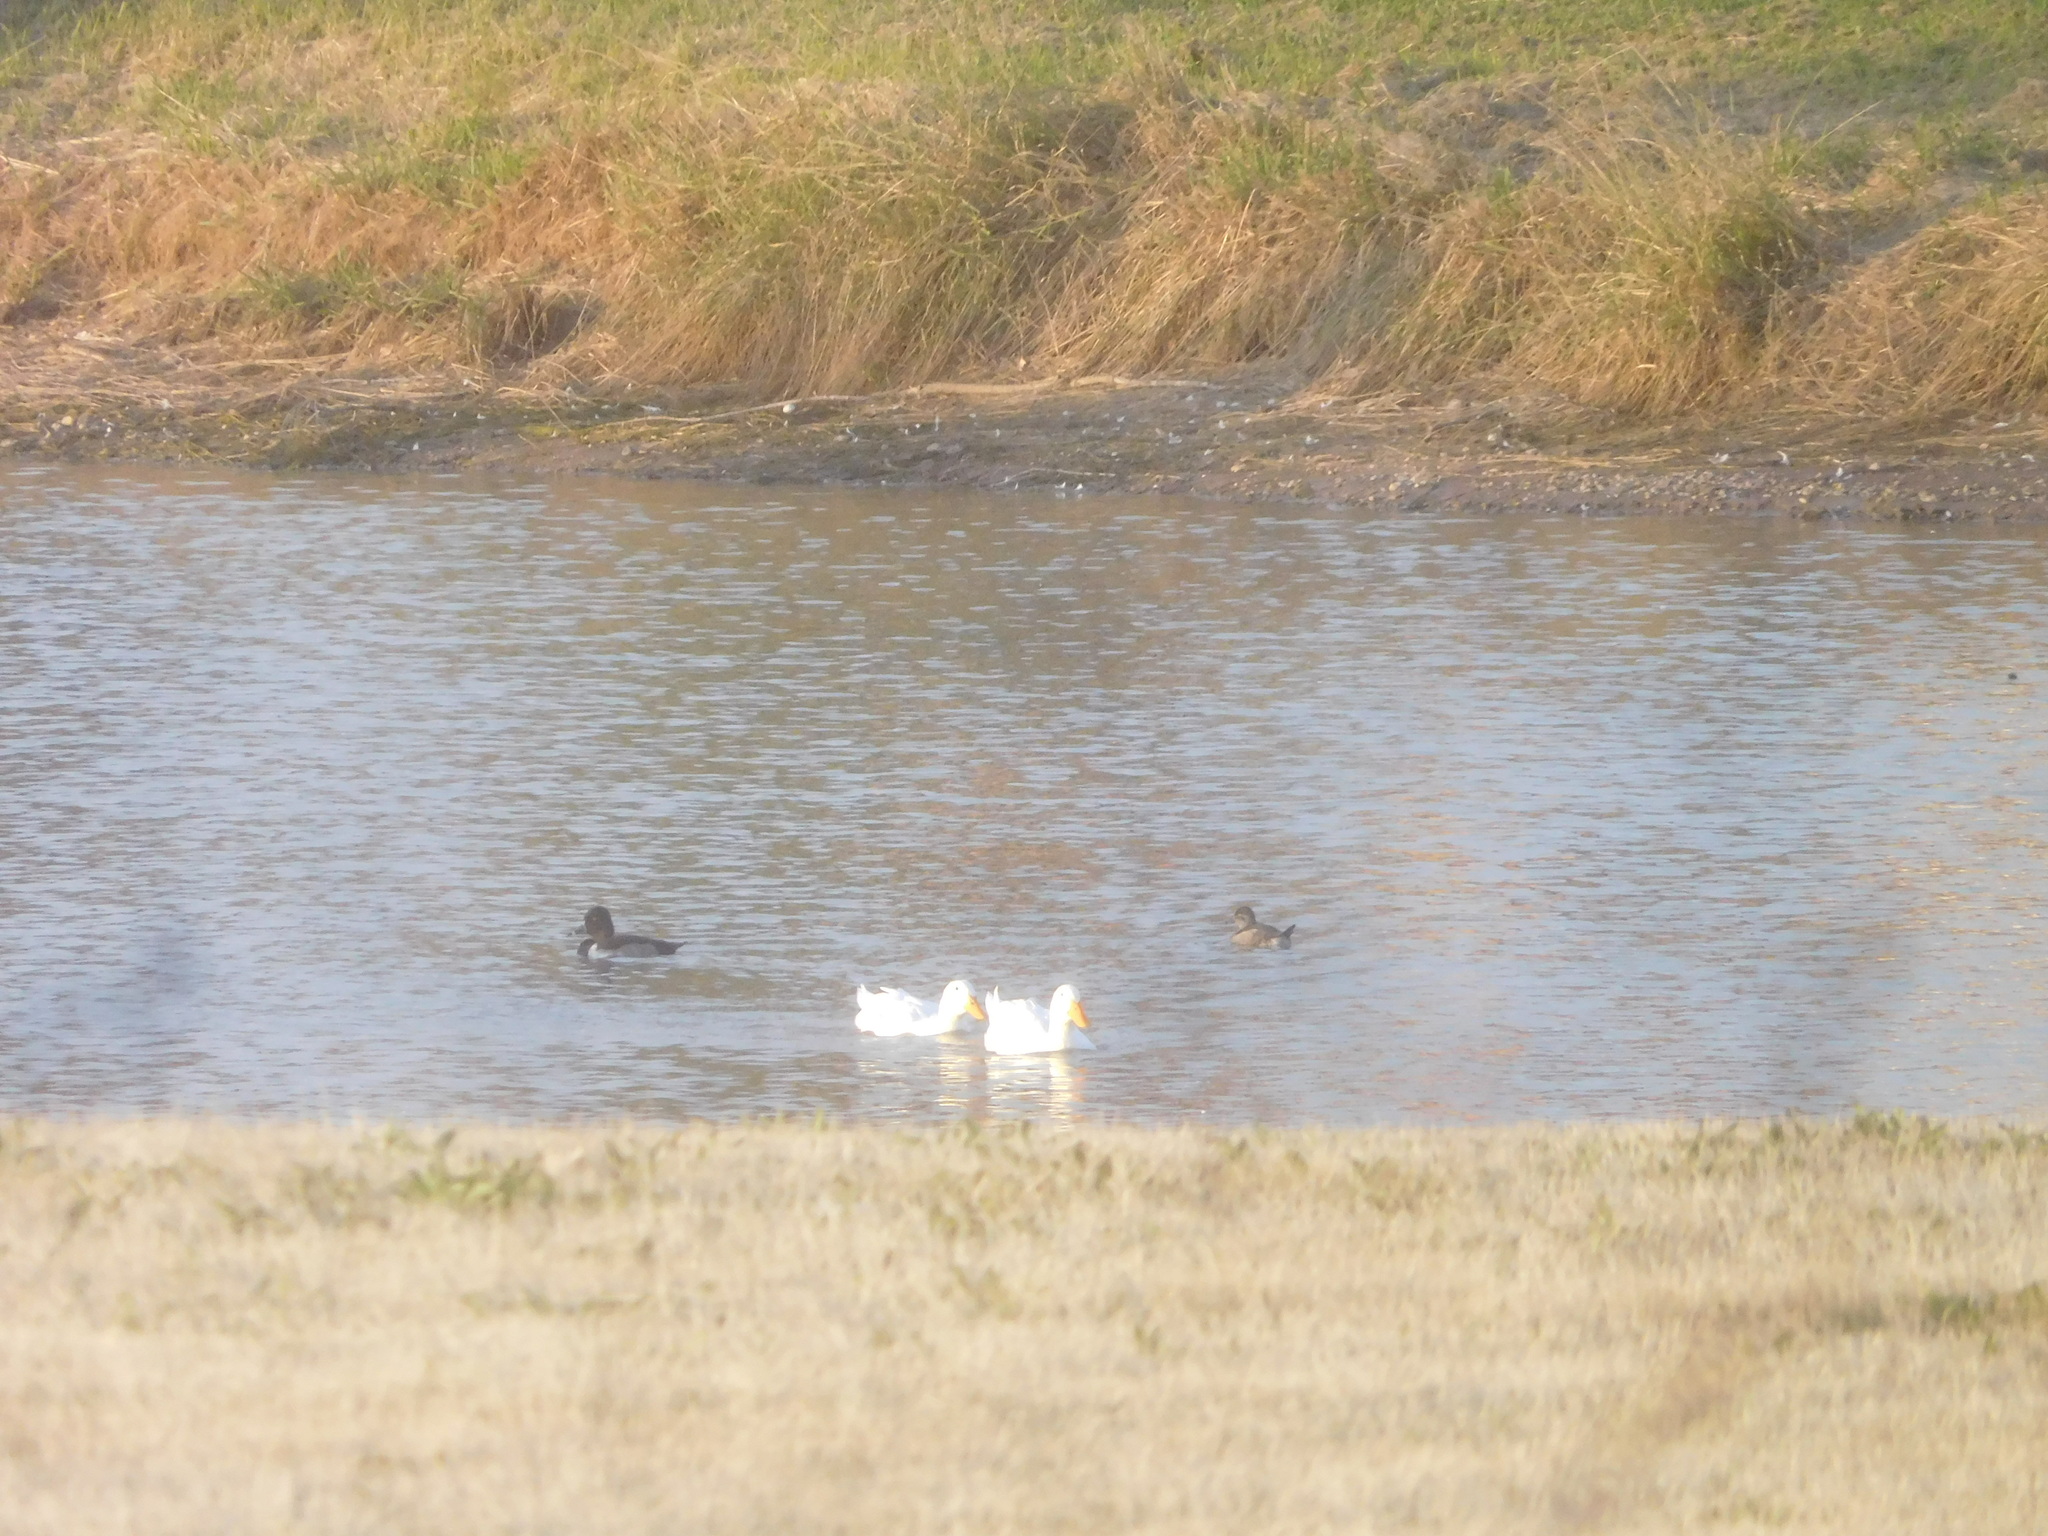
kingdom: Animalia
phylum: Chordata
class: Aves
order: Anseriformes
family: Anatidae
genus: Aythya
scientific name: Aythya collaris
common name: Ring-necked duck
